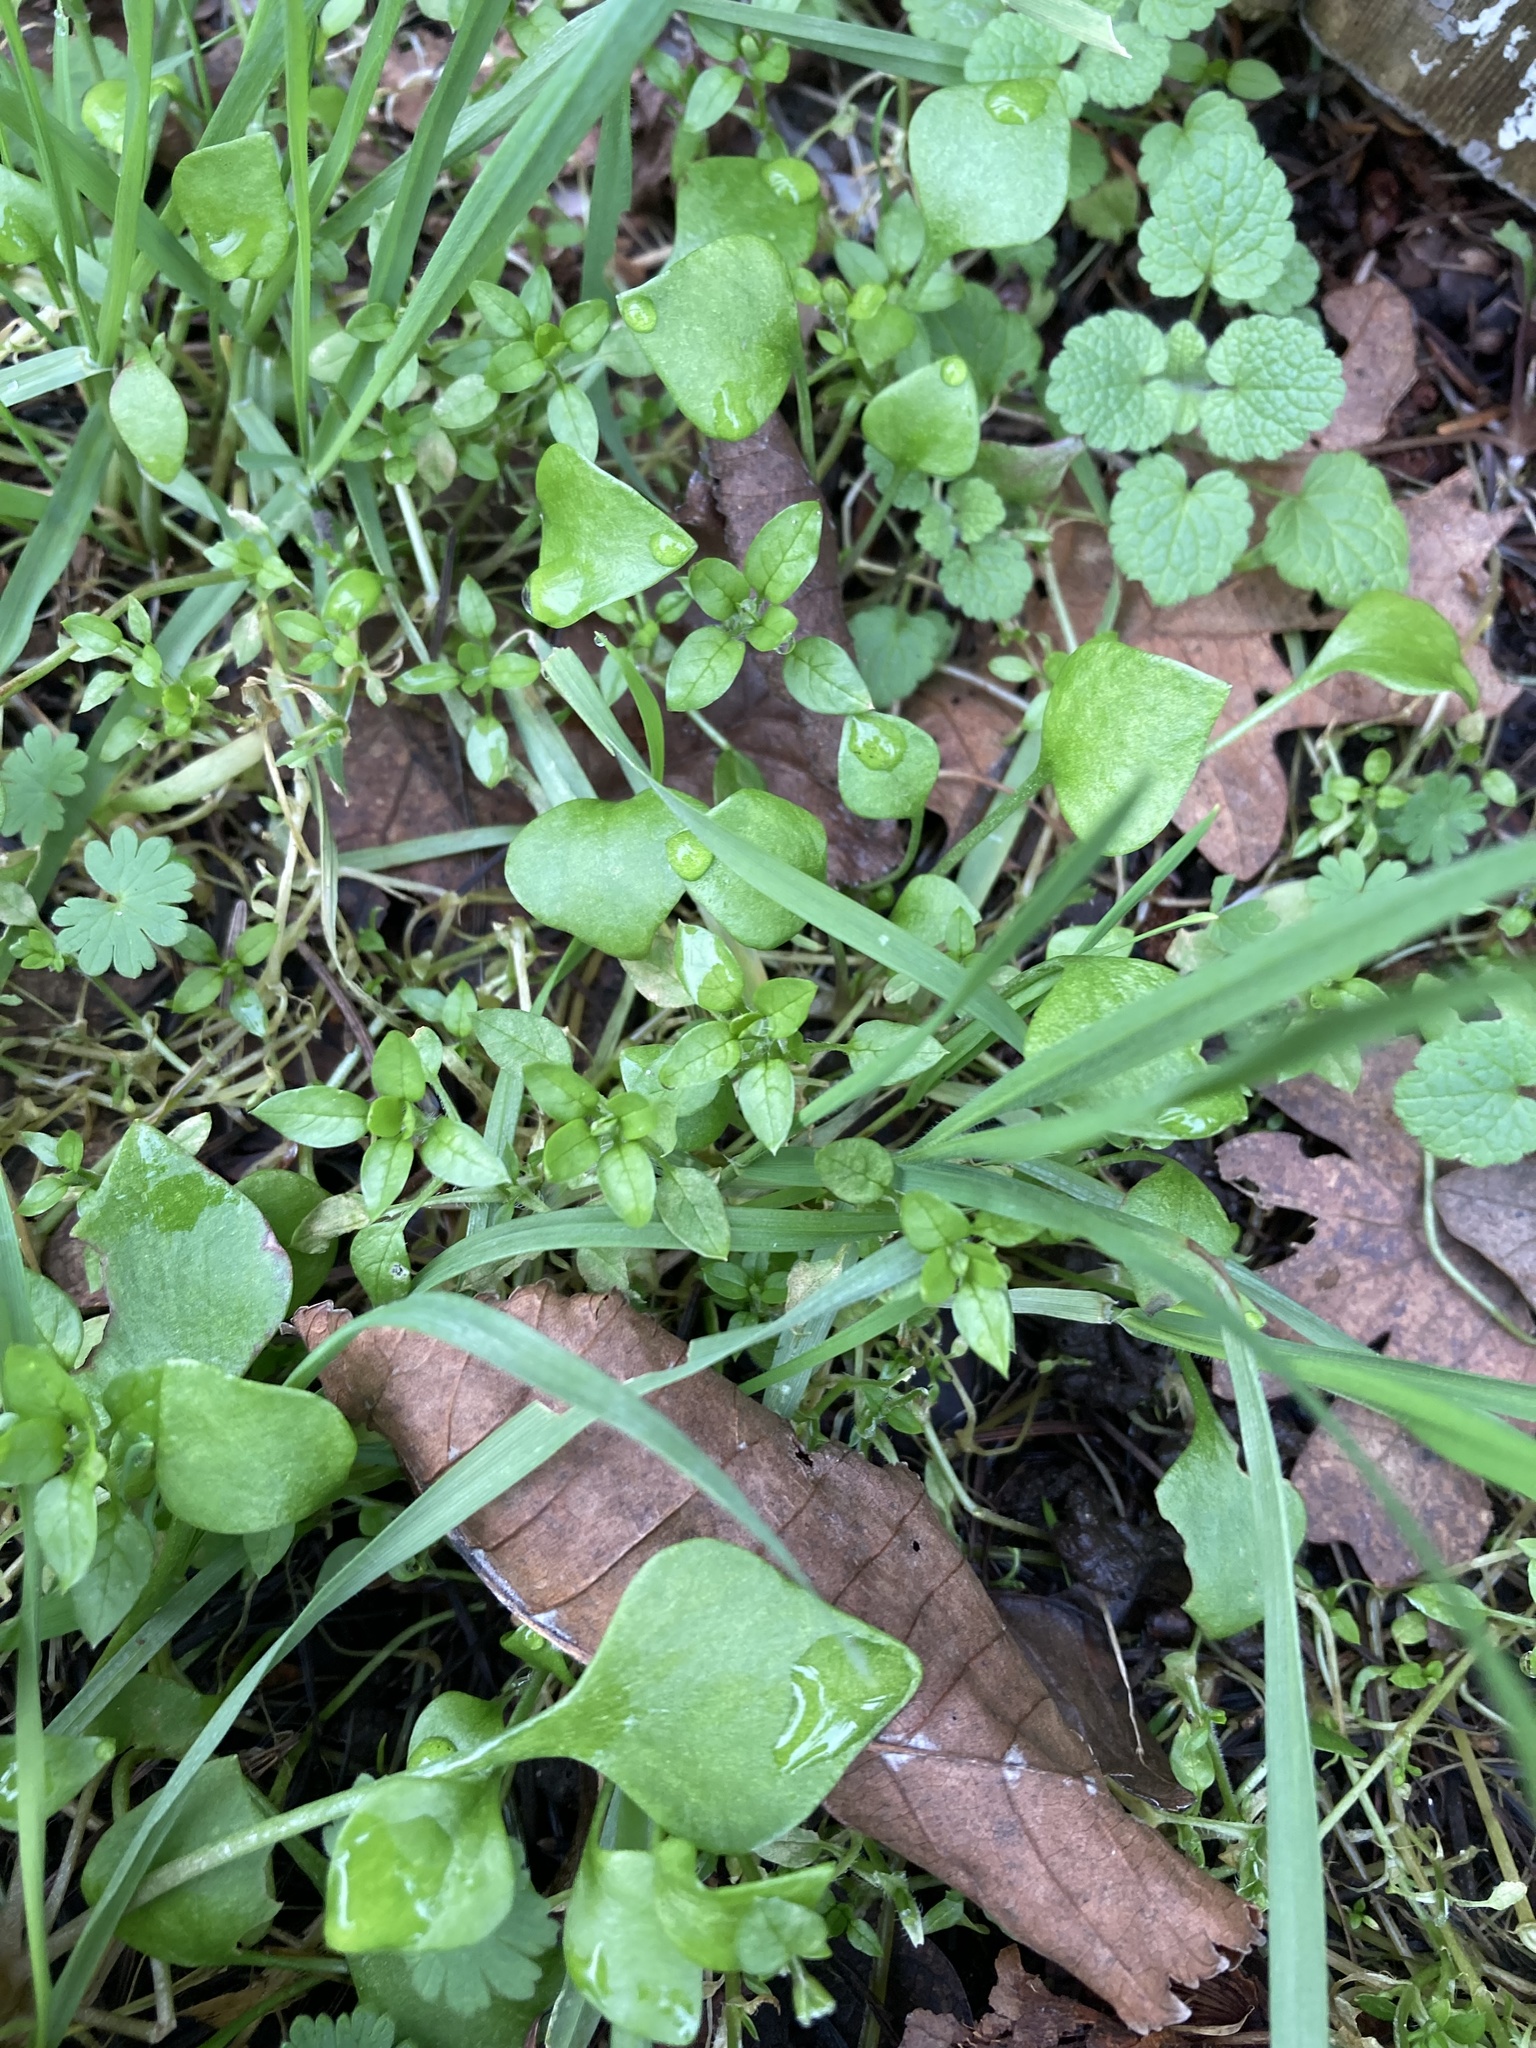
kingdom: Plantae
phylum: Tracheophyta
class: Magnoliopsida
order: Caryophyllales
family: Montiaceae
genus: Claytonia
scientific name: Claytonia perfoliata
